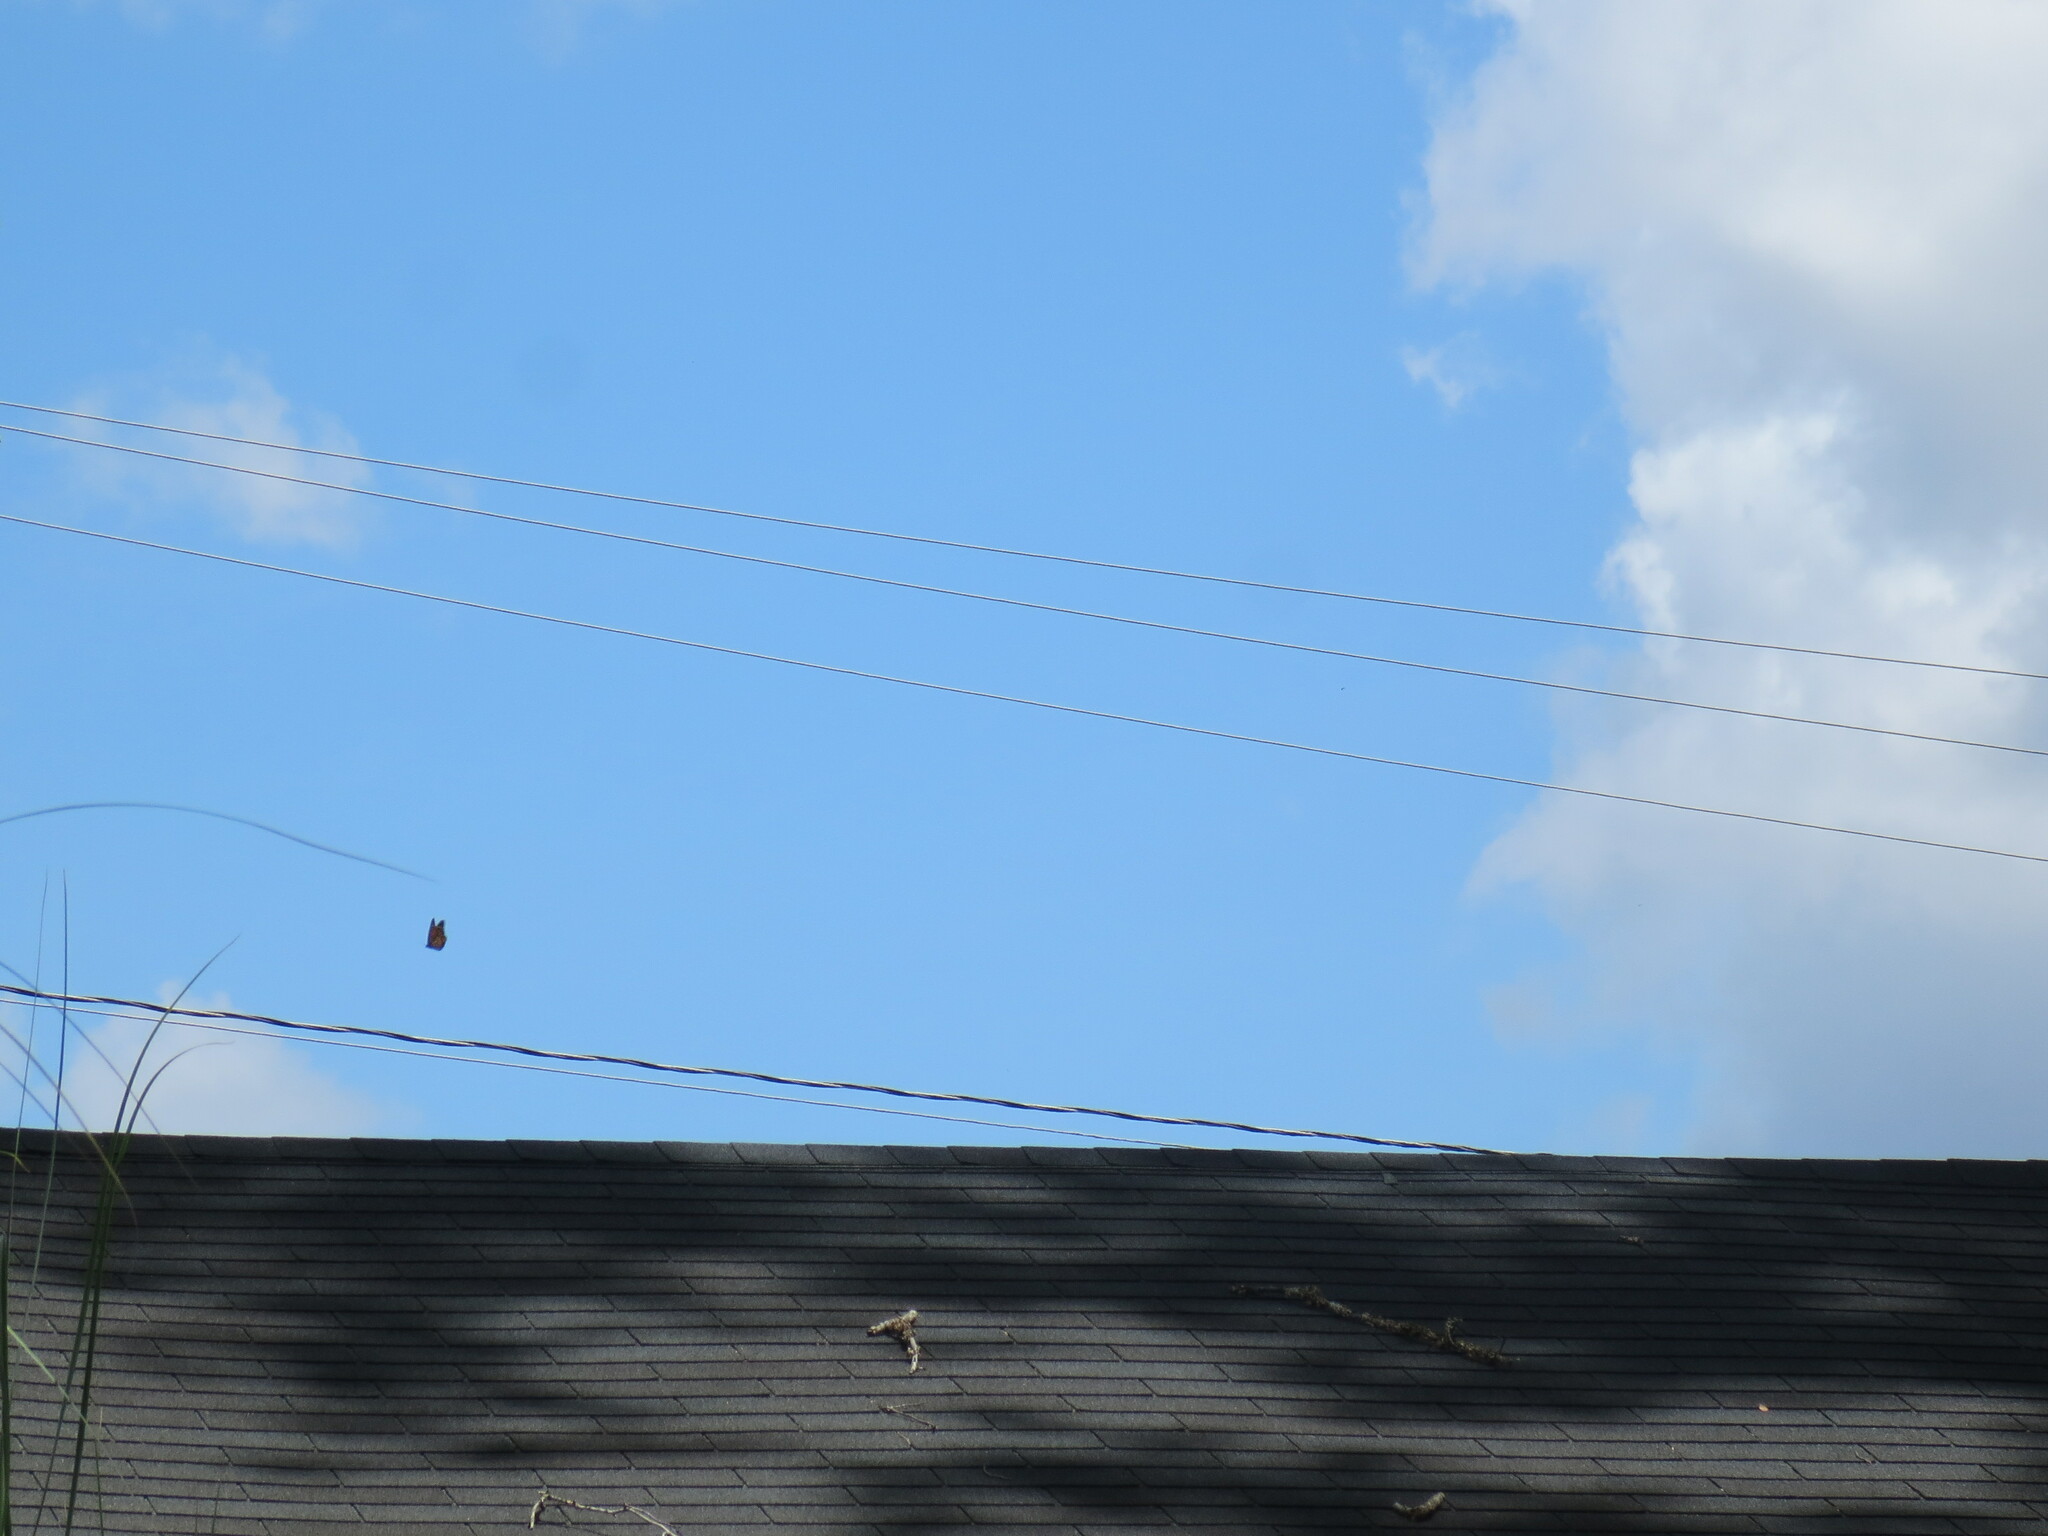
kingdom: Animalia
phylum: Arthropoda
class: Insecta
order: Lepidoptera
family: Nymphalidae
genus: Danaus
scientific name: Danaus plexippus
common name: Monarch
